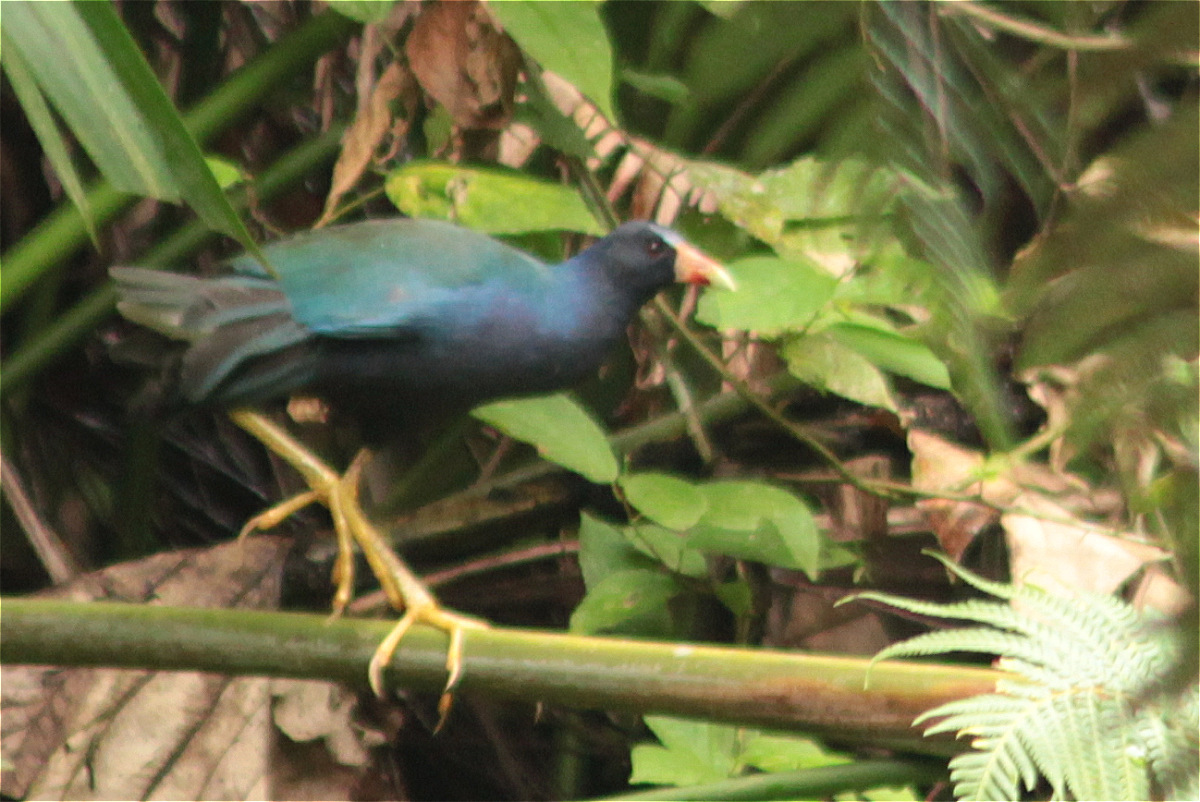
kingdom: Animalia
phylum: Chordata
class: Aves
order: Gruiformes
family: Rallidae
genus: Porphyrio
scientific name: Porphyrio martinica
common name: Purple gallinule
